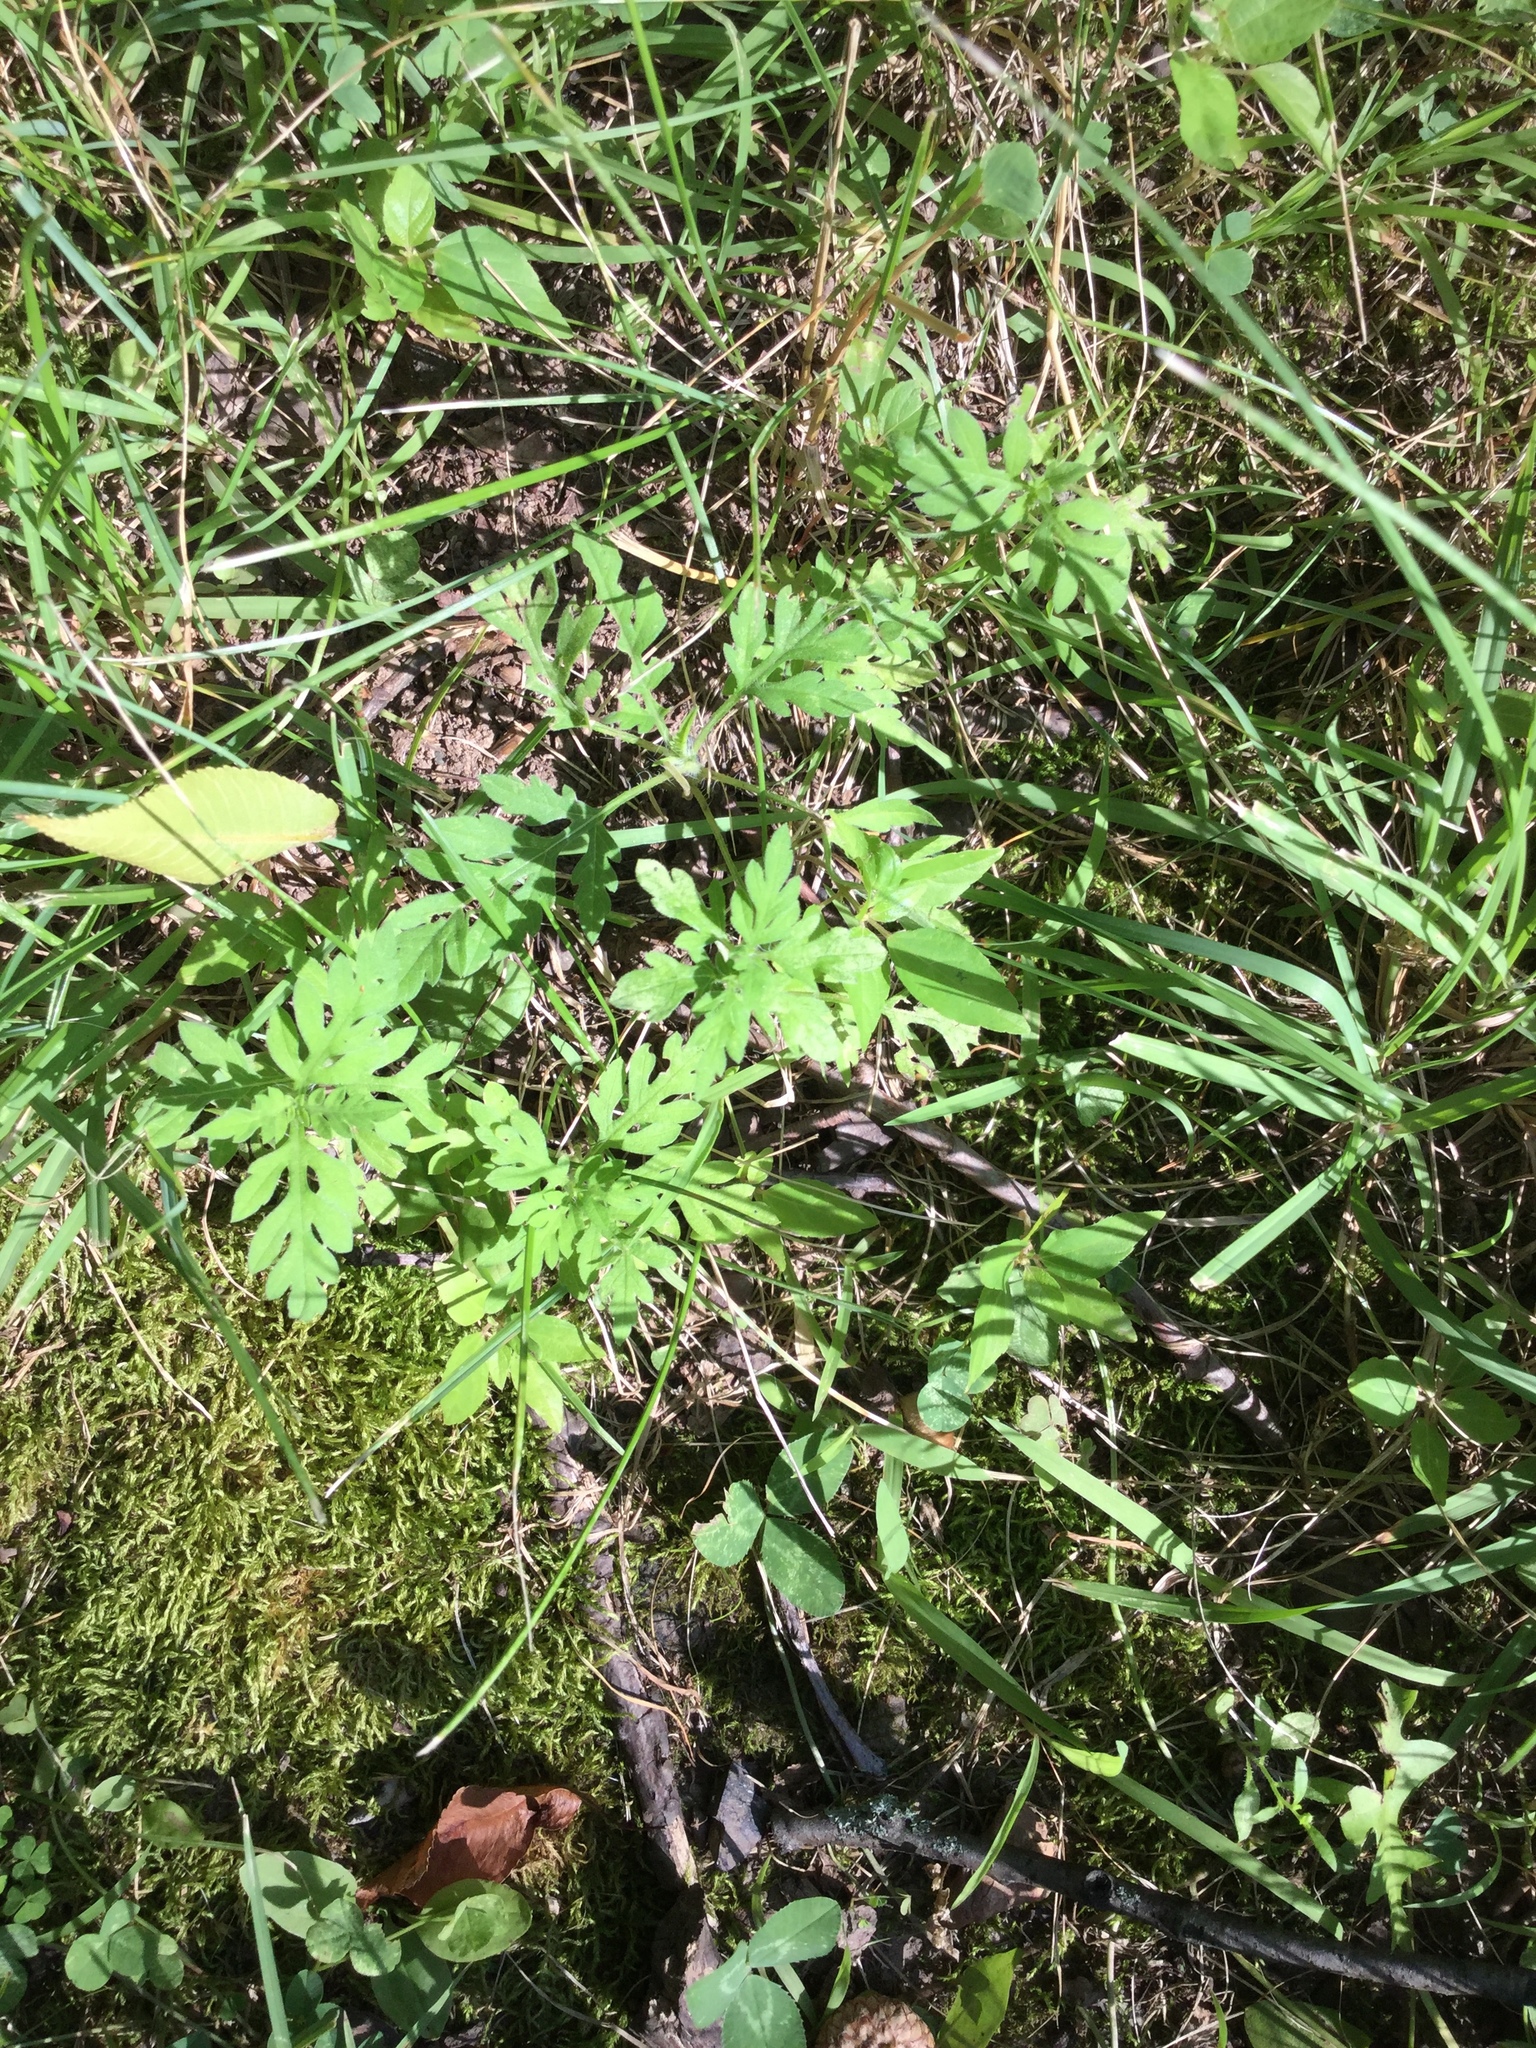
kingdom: Plantae
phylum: Tracheophyta
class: Magnoliopsida
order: Asterales
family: Asteraceae
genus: Ambrosia
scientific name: Ambrosia artemisiifolia
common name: Annual ragweed
